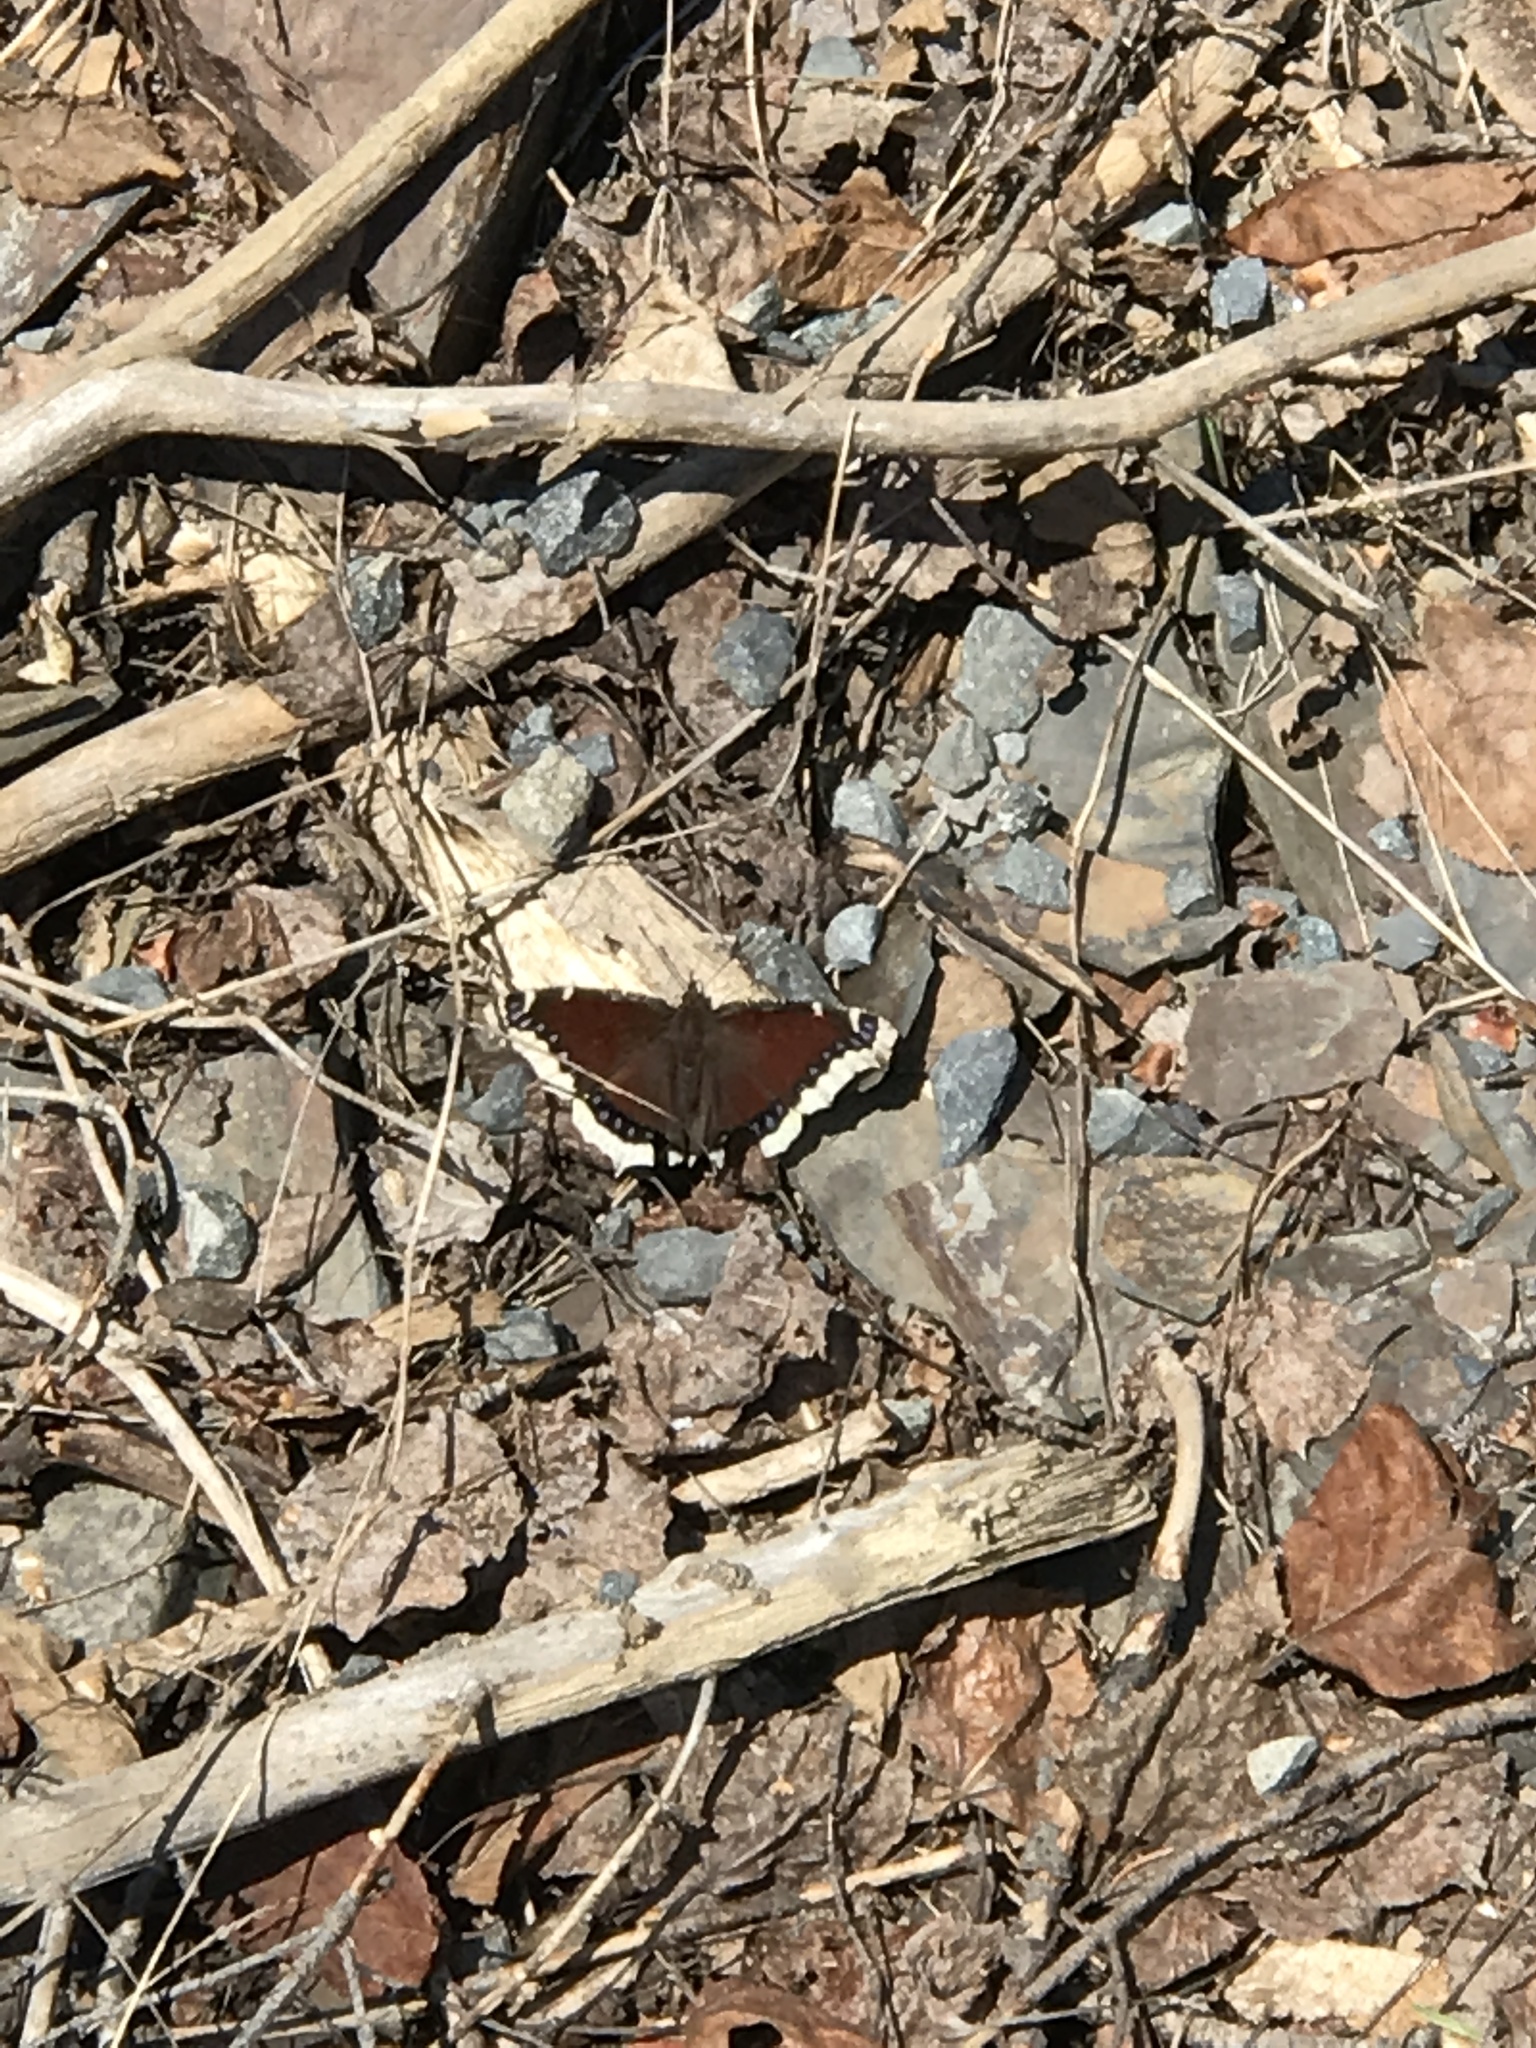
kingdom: Animalia
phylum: Arthropoda
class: Insecta
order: Lepidoptera
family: Nymphalidae
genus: Nymphalis
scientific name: Nymphalis antiopa
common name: Camberwell beauty
